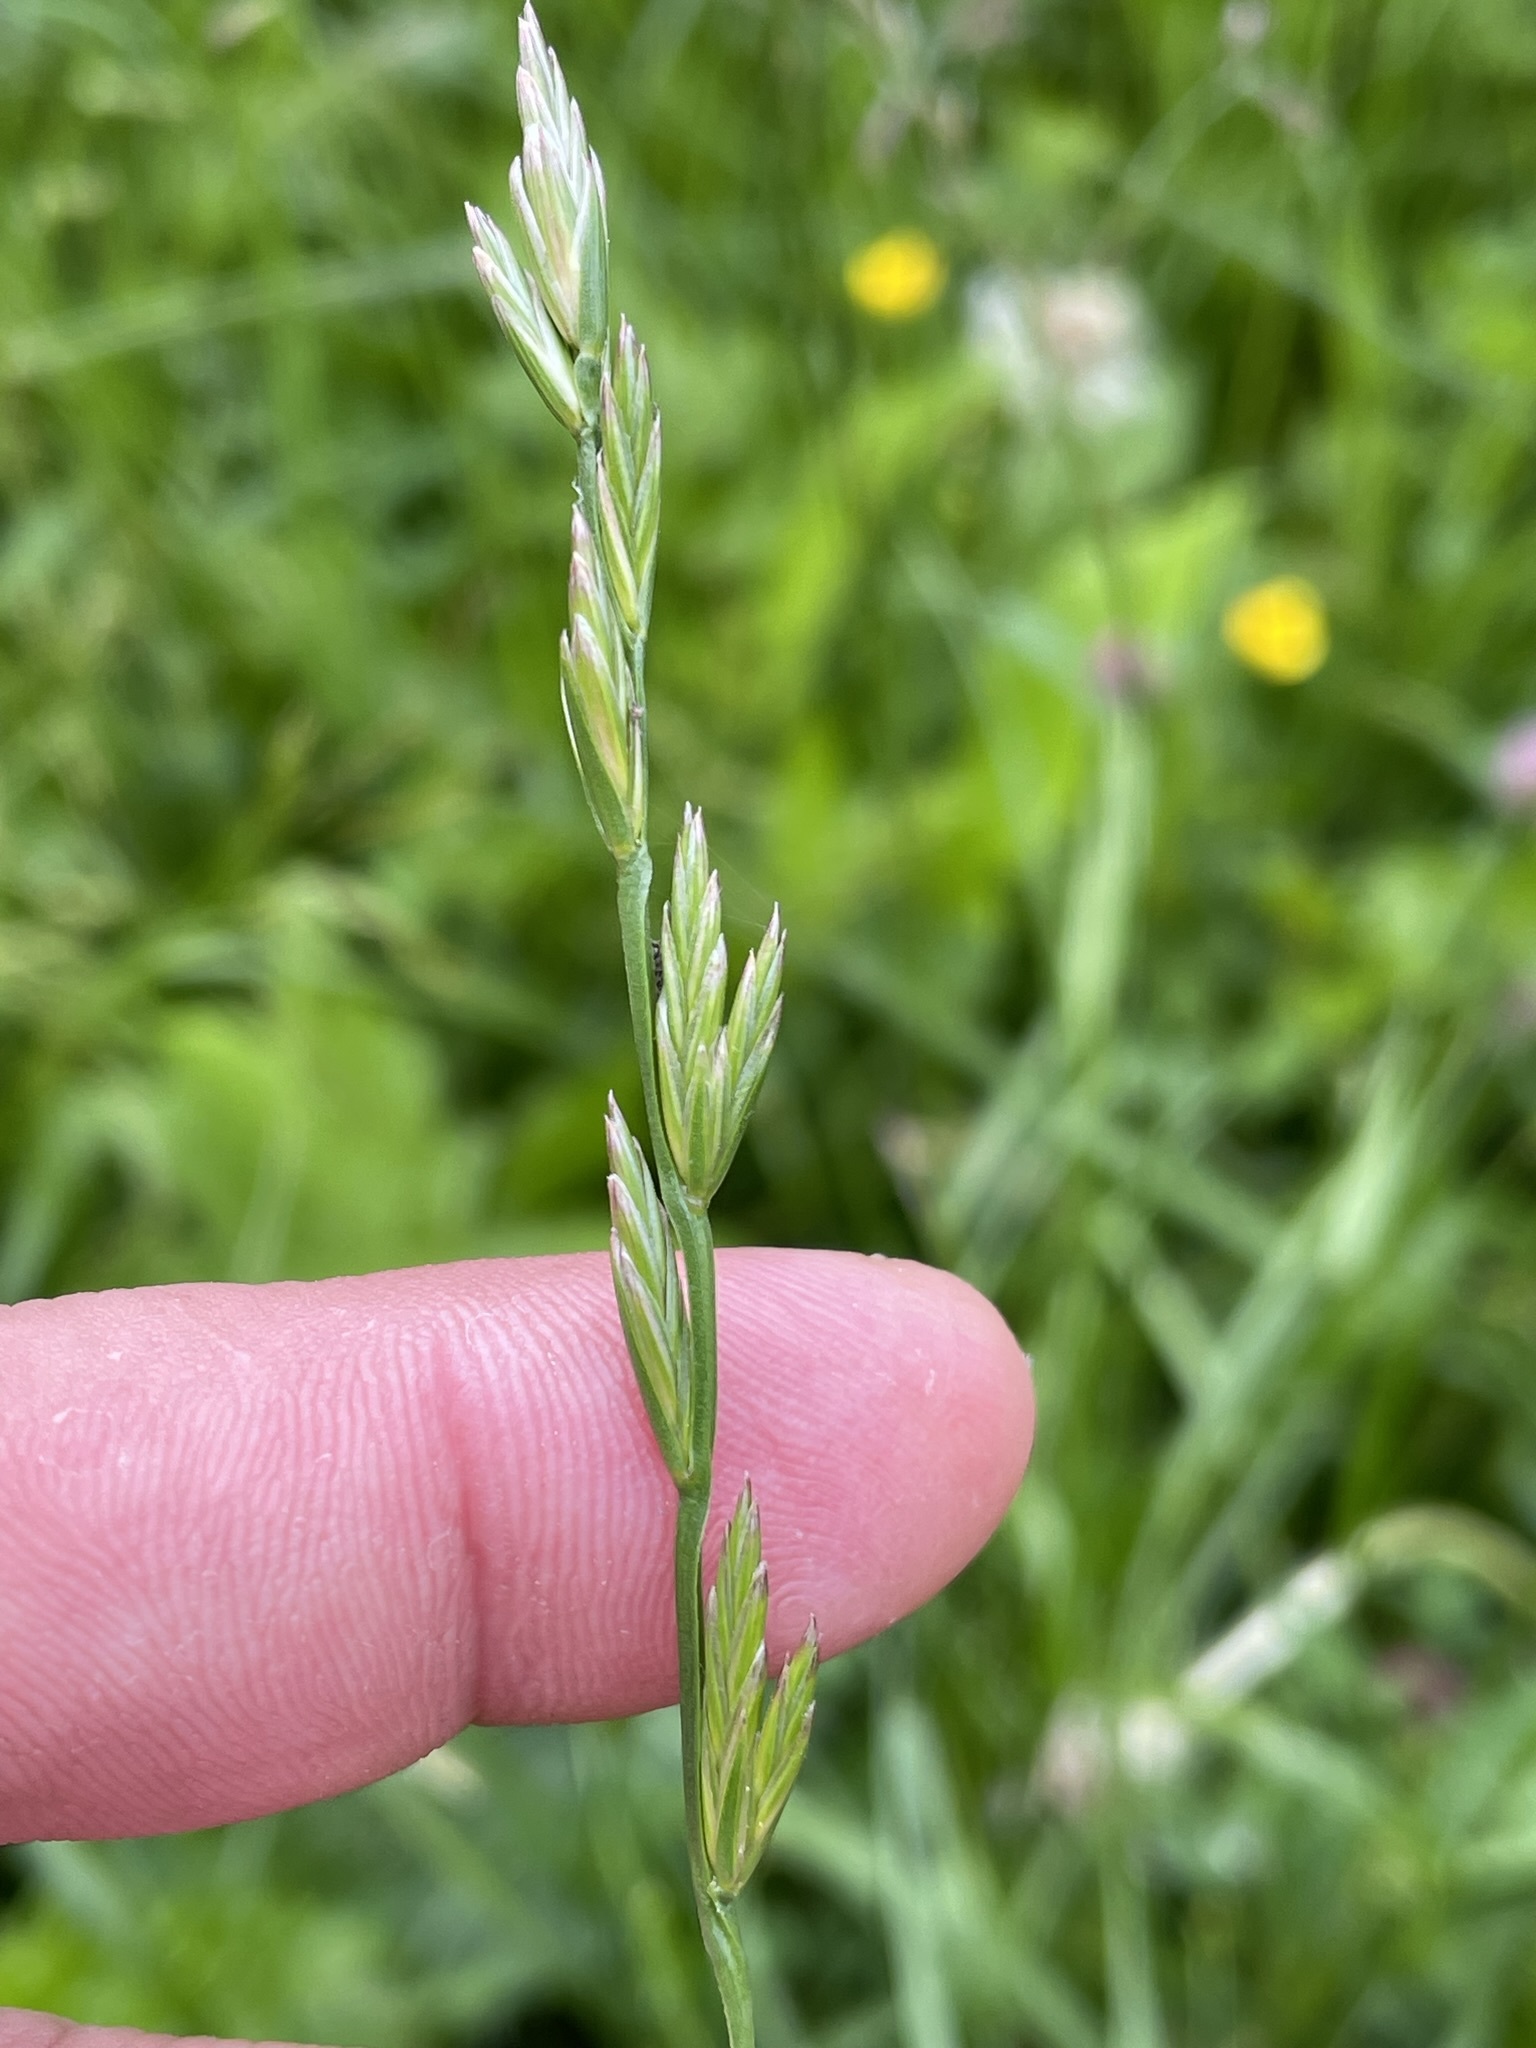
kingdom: Plantae
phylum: Tracheophyta
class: Liliopsida
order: Poales
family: Poaceae
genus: Lolium
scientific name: Lolium perenne
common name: Perennial ryegrass
